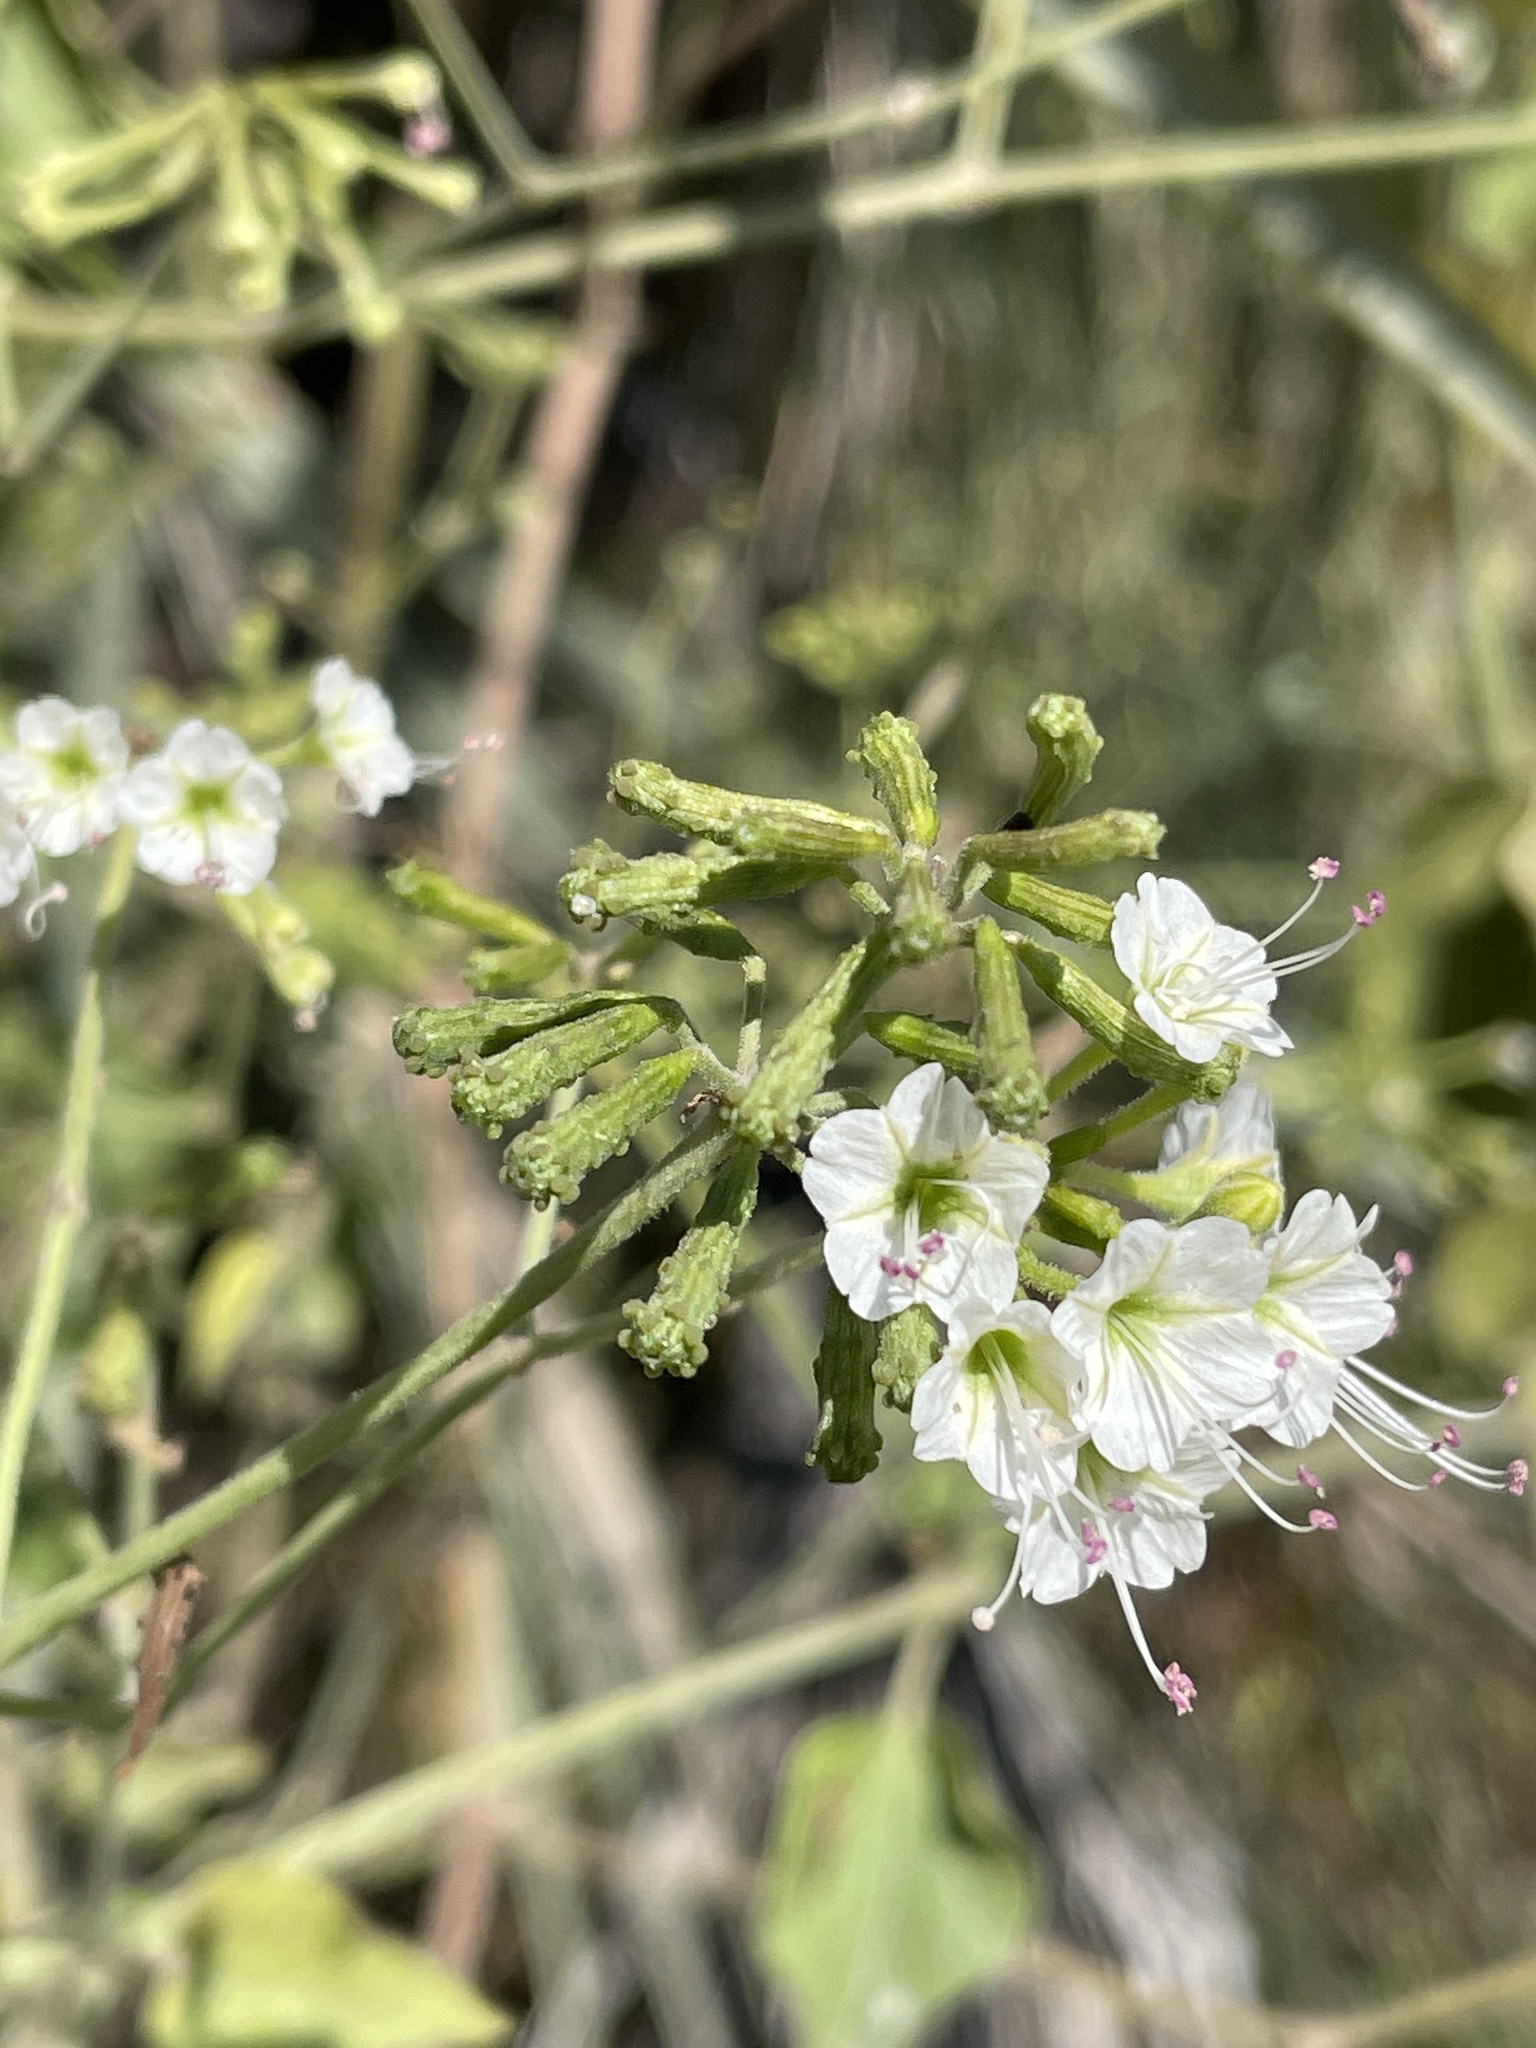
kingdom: Plantae
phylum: Tracheophyta
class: Magnoliopsida
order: Caryophyllales
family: Nyctaginaceae
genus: Commicarpus
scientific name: Commicarpus plumbagineus
